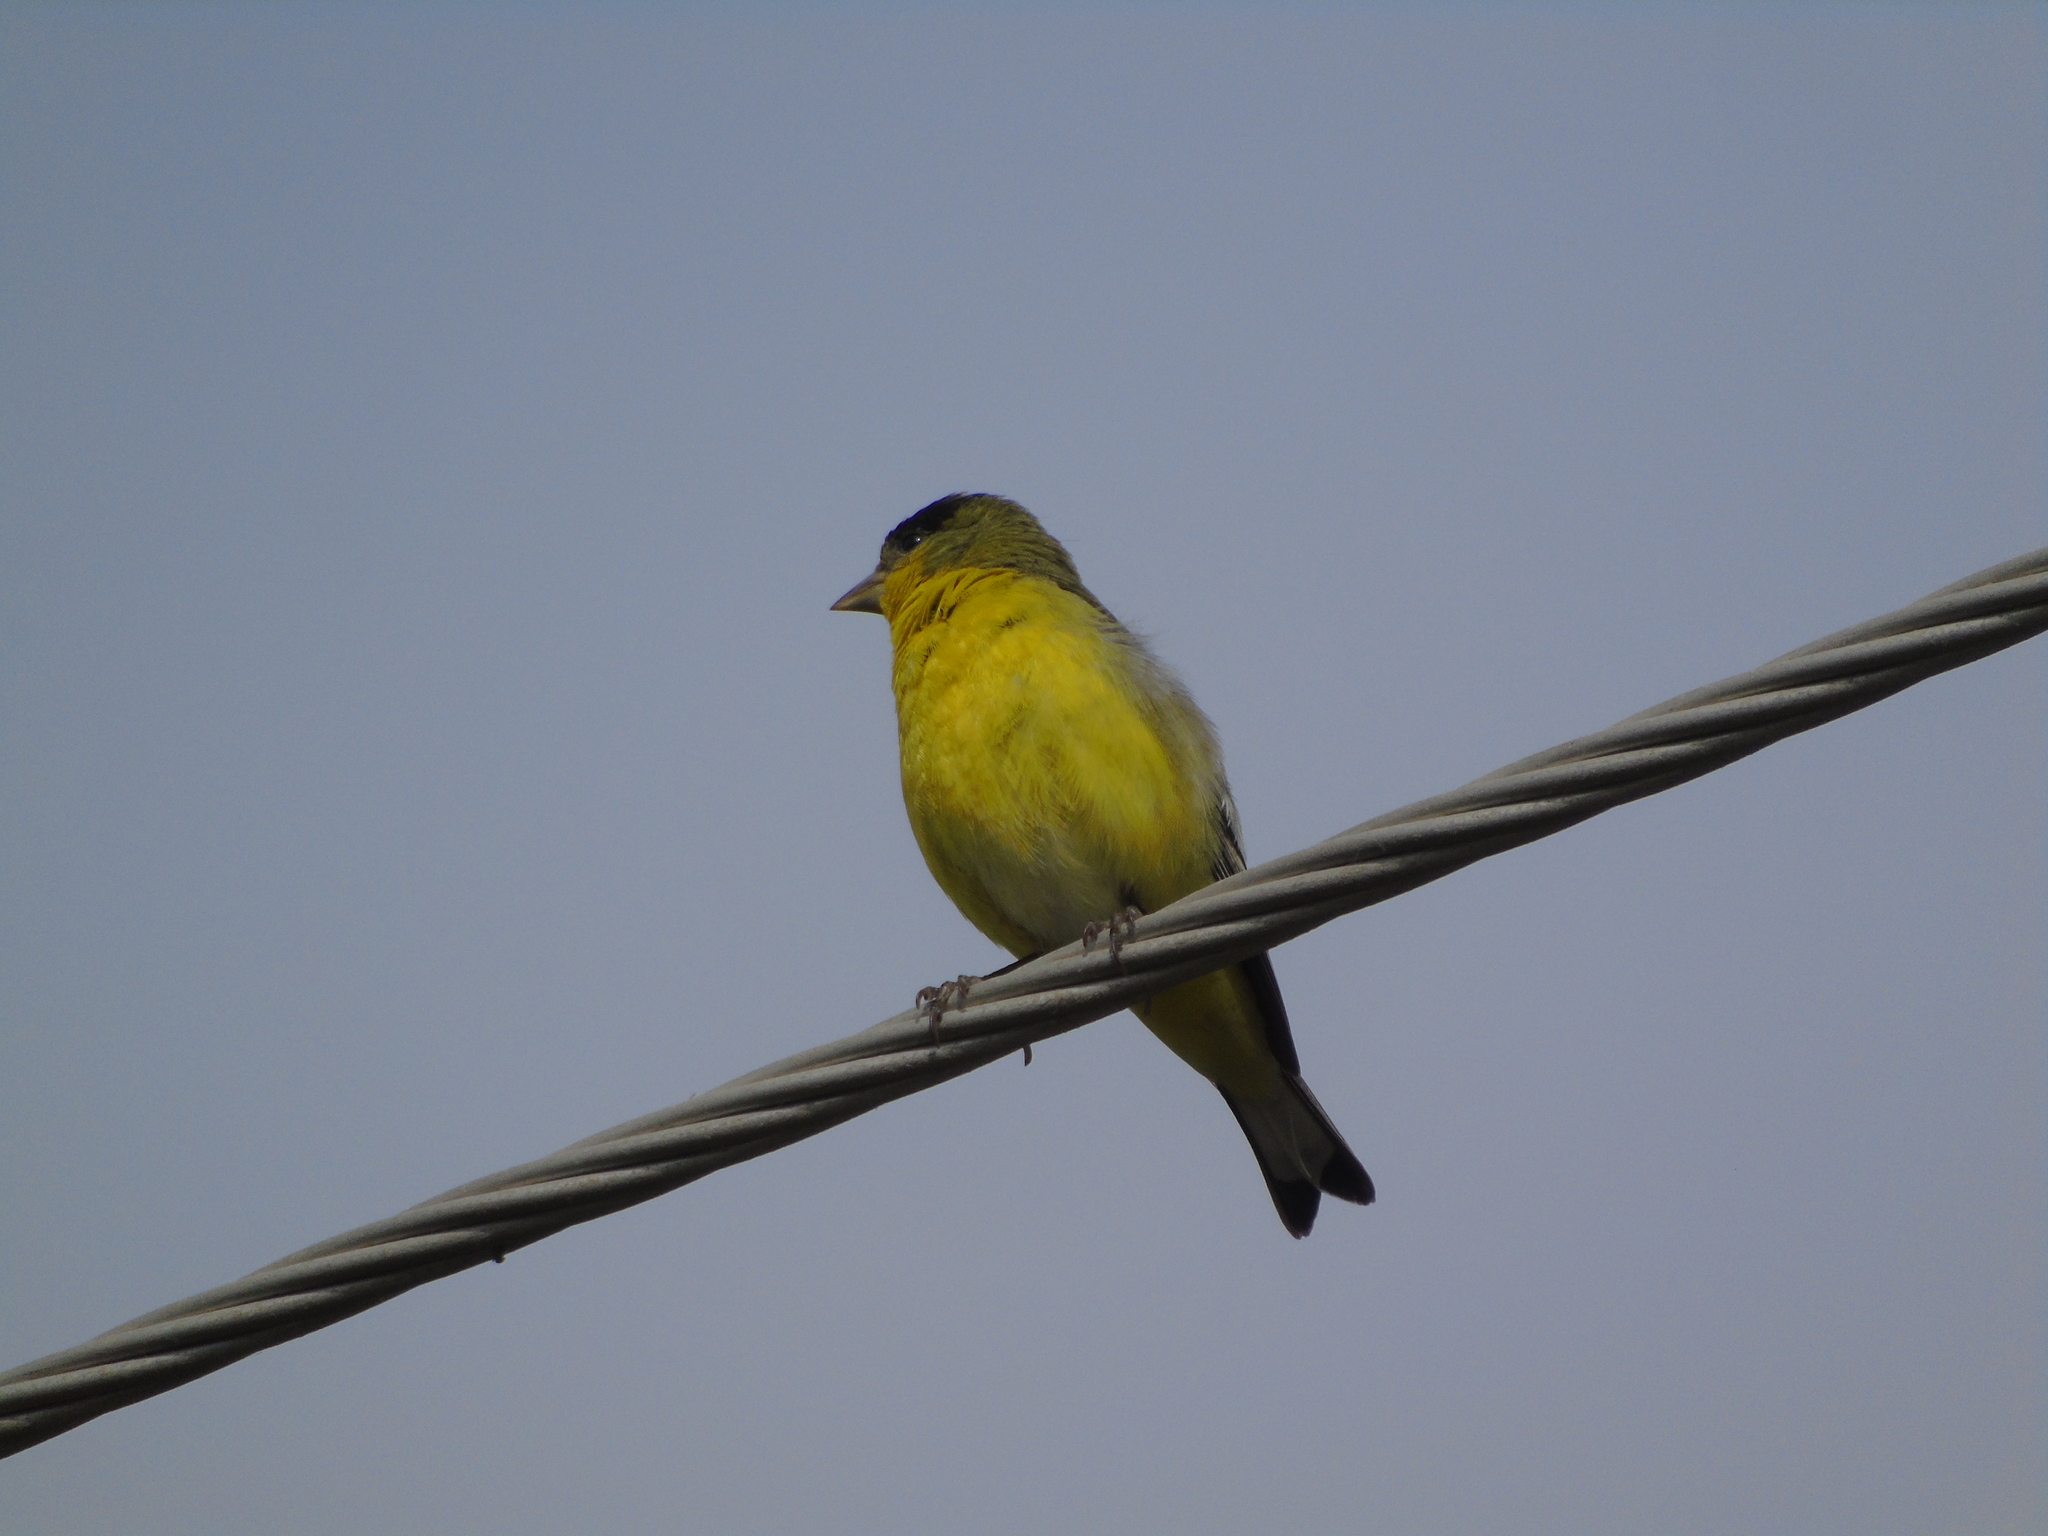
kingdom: Animalia
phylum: Chordata
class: Aves
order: Passeriformes
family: Fringillidae
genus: Spinus
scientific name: Spinus psaltria
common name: Lesser goldfinch
